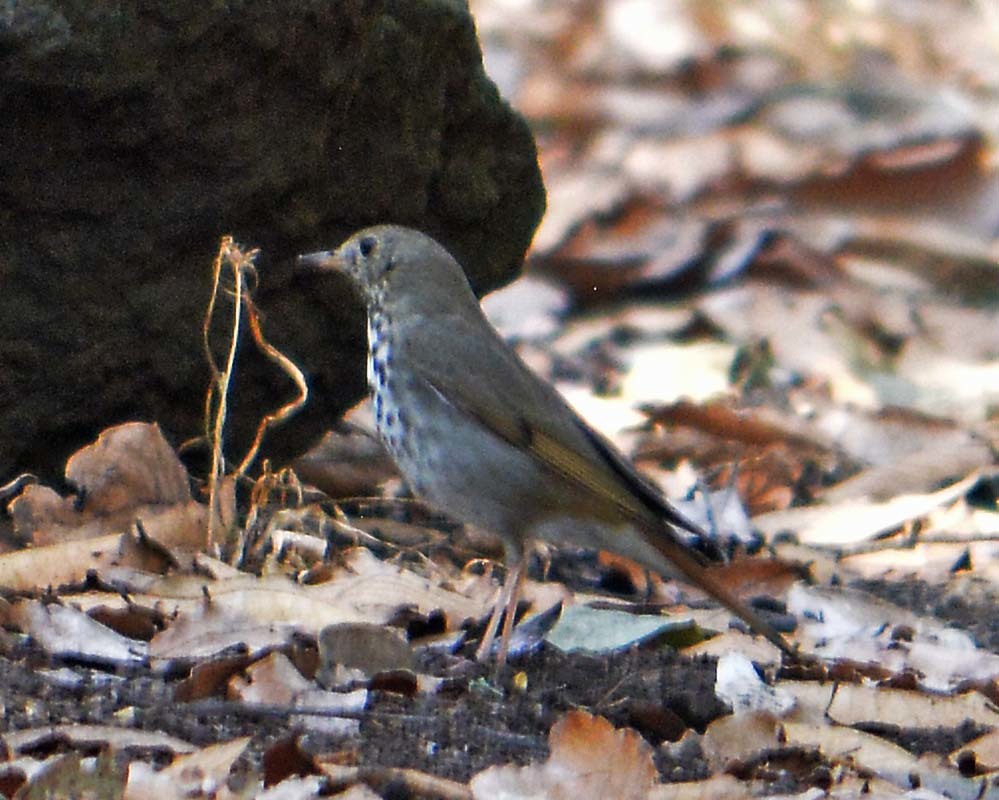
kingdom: Animalia
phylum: Chordata
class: Aves
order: Passeriformes
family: Turdidae
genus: Catharus
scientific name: Catharus guttatus
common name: Hermit thrush
